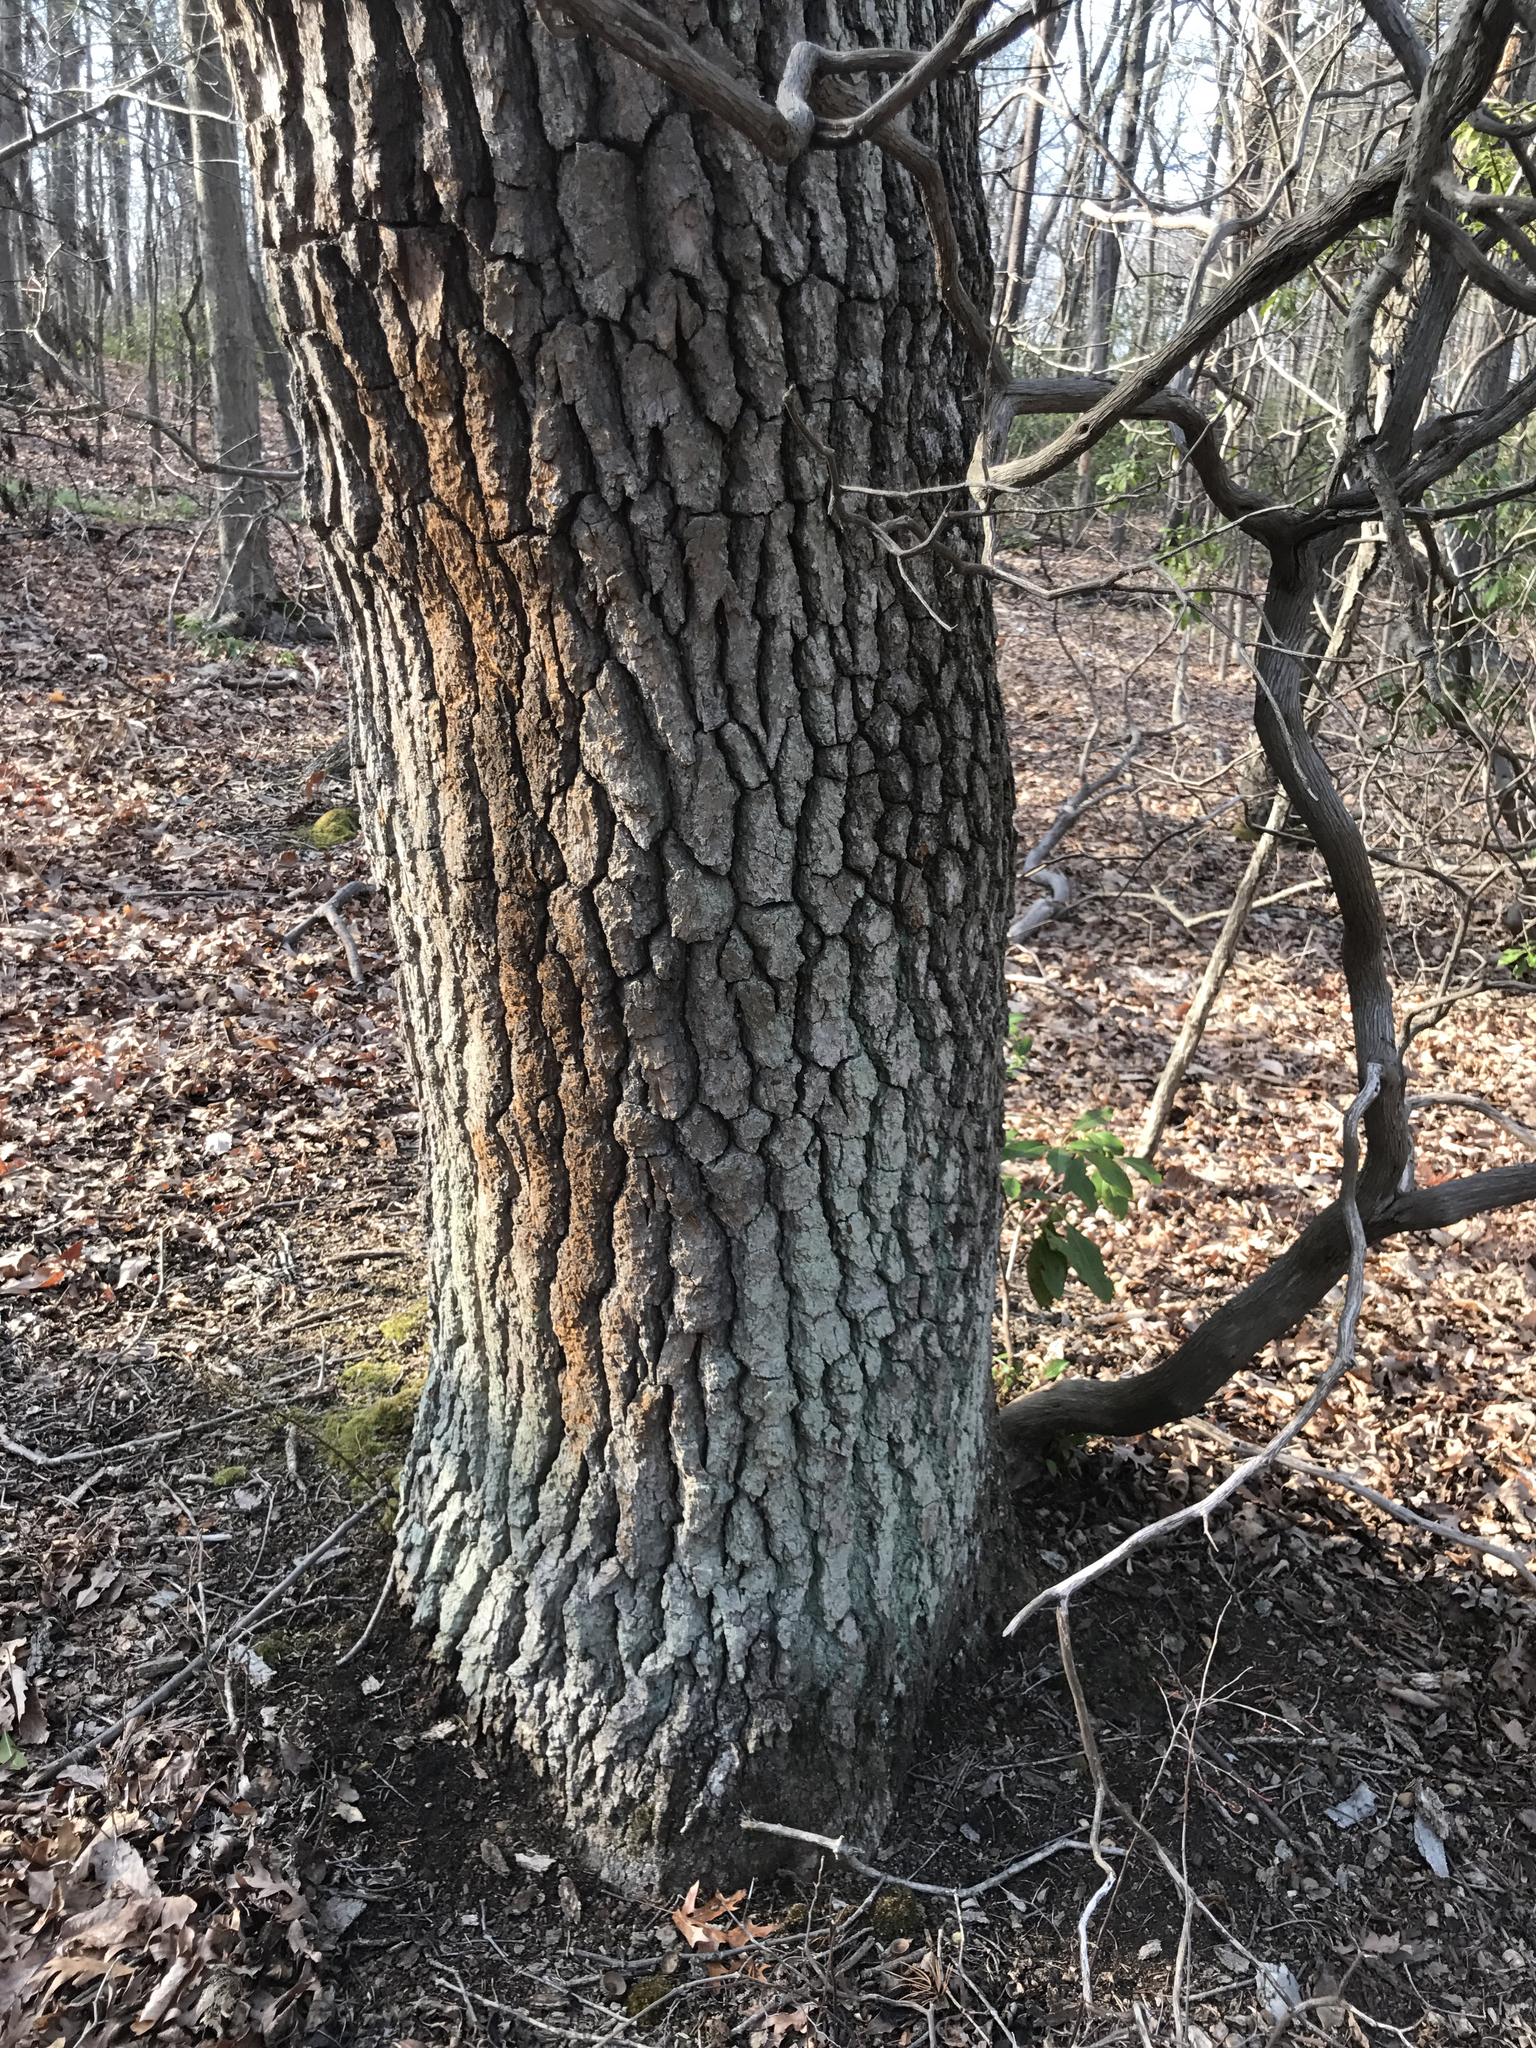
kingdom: Plantae
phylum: Tracheophyta
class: Magnoliopsida
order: Cornales
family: Nyssaceae
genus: Nyssa
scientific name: Nyssa sylvatica
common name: Black tupelo
